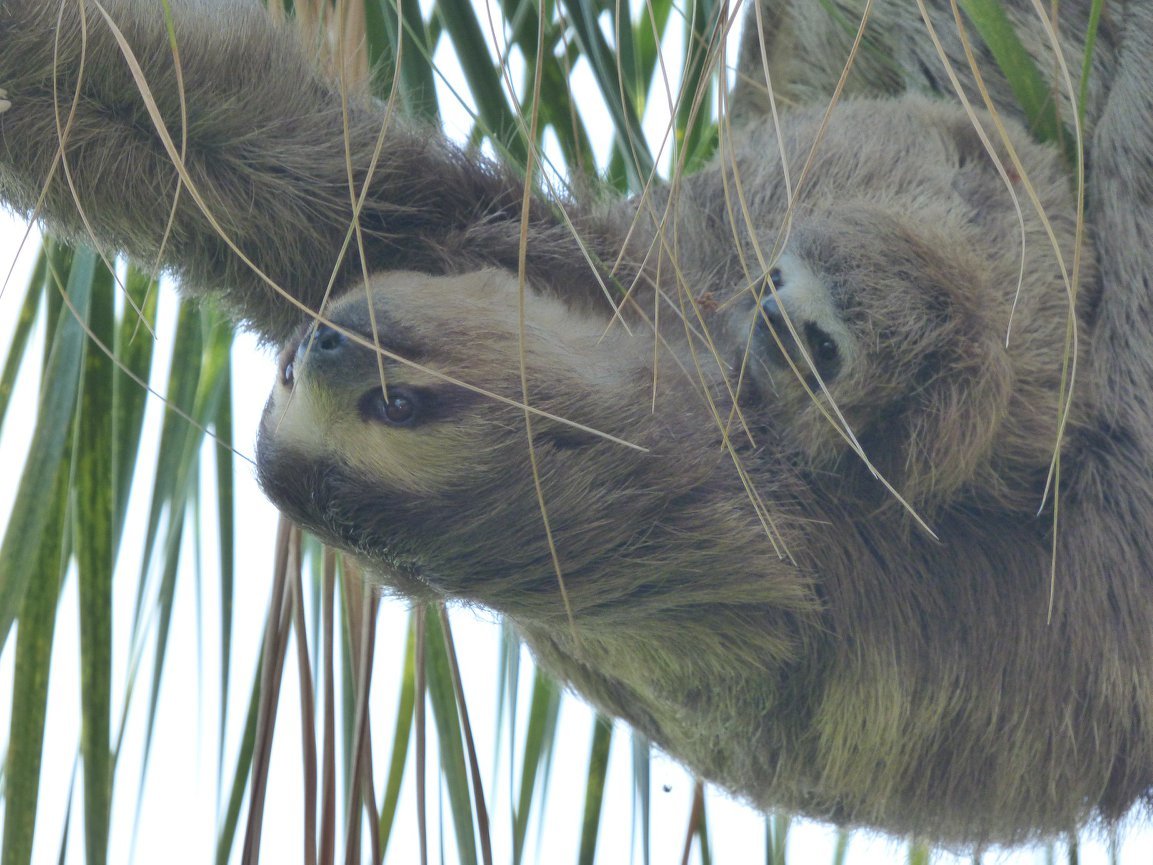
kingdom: Animalia
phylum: Chordata
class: Mammalia
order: Pilosa
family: Bradypodidae
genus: Bradypus
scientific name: Bradypus variegatus
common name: Brown-throated three-toed sloth
